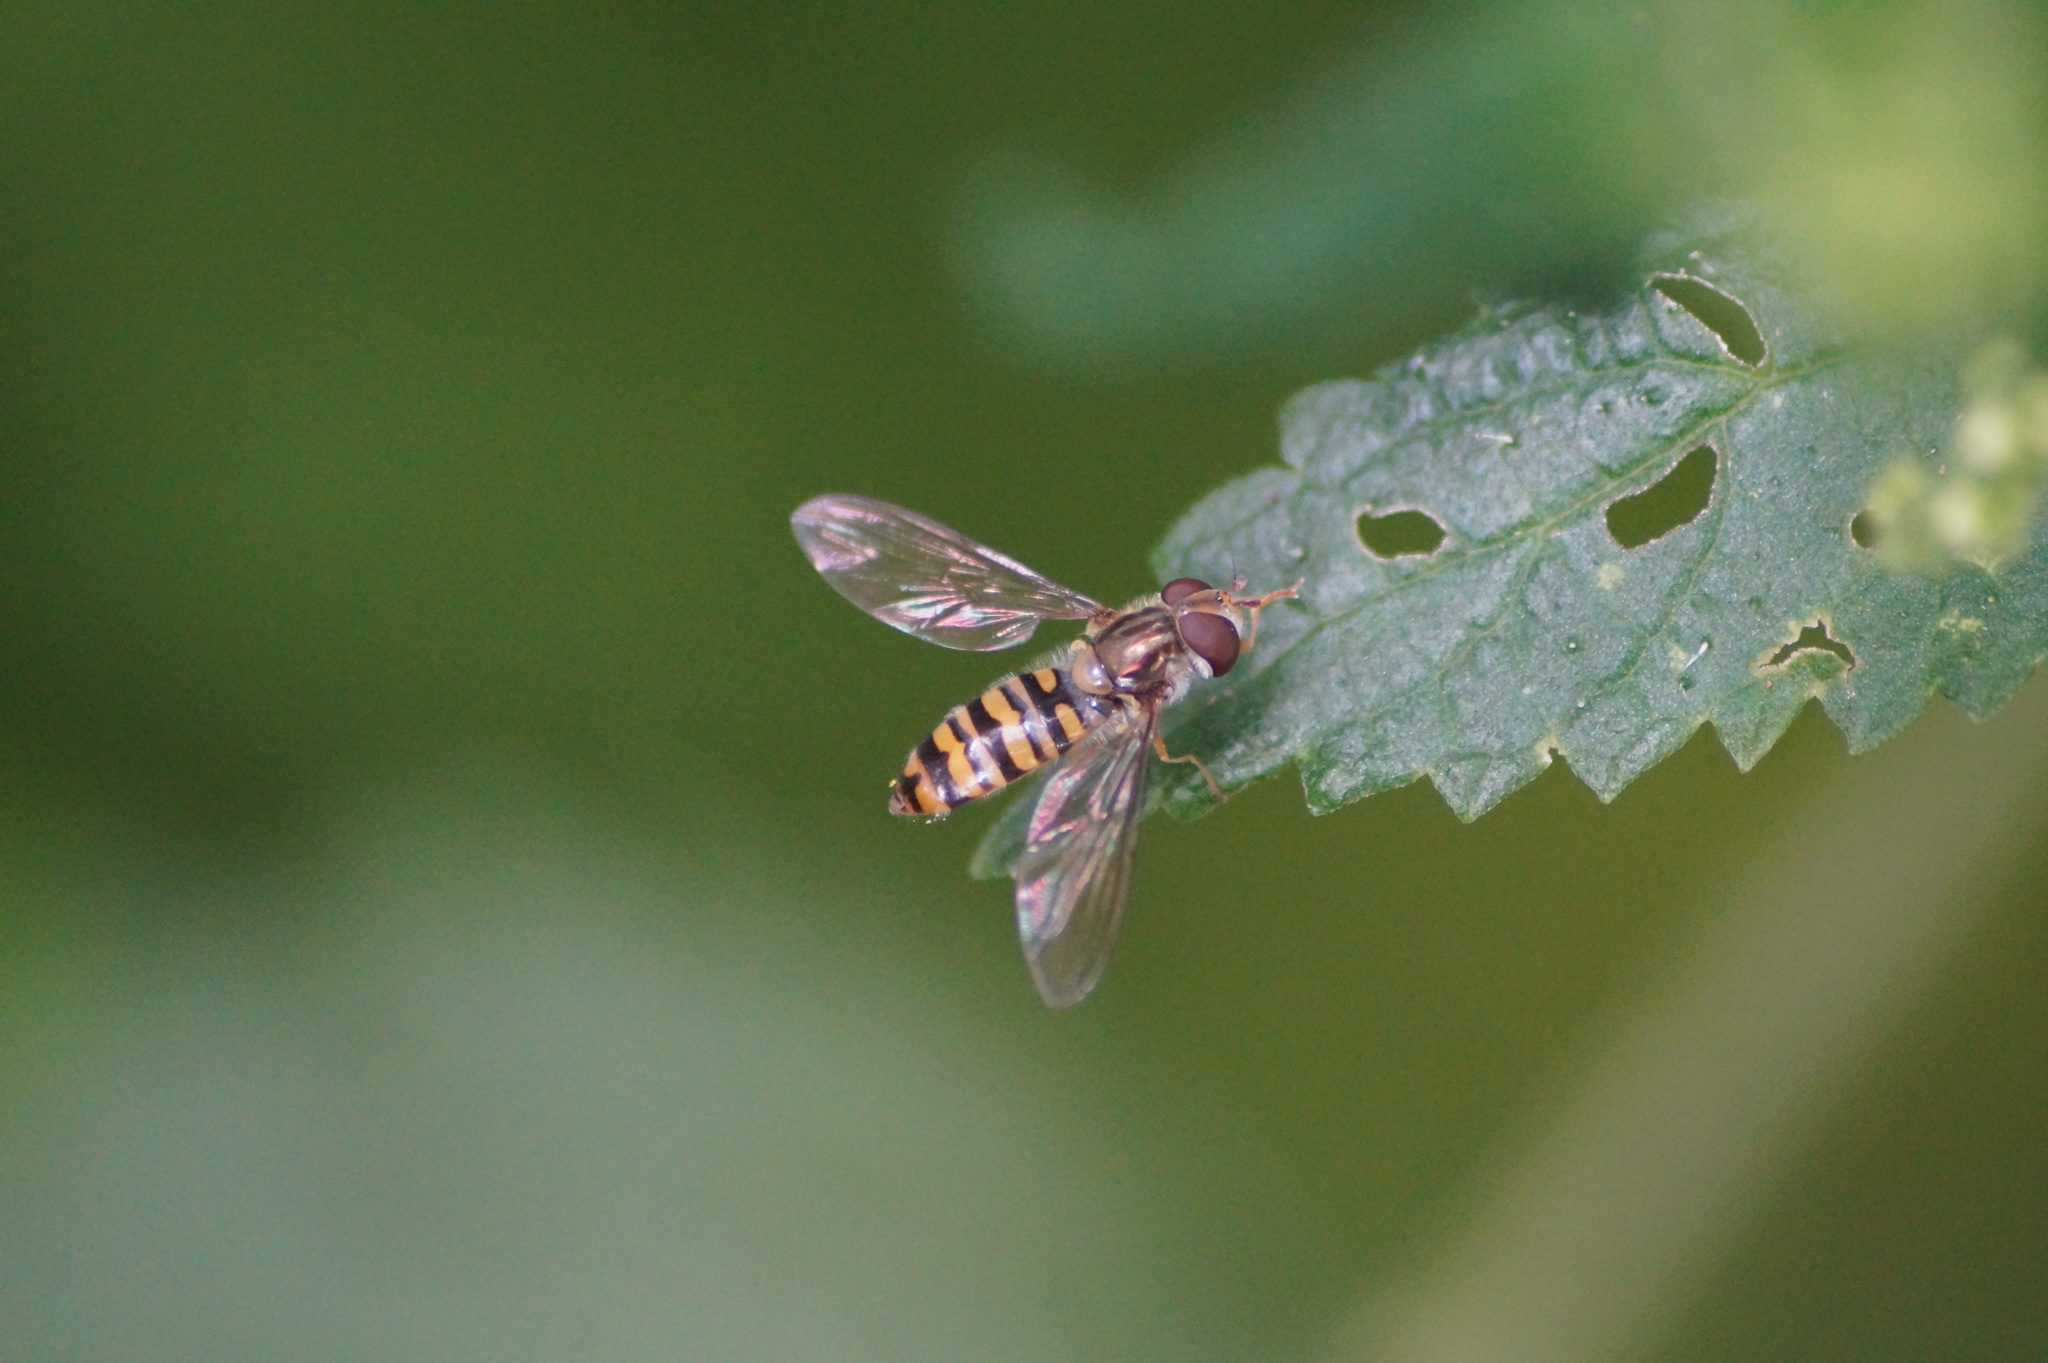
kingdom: Animalia
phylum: Arthropoda
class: Insecta
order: Diptera
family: Syrphidae
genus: Episyrphus
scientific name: Episyrphus balteatus
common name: Marmalade hoverfly
